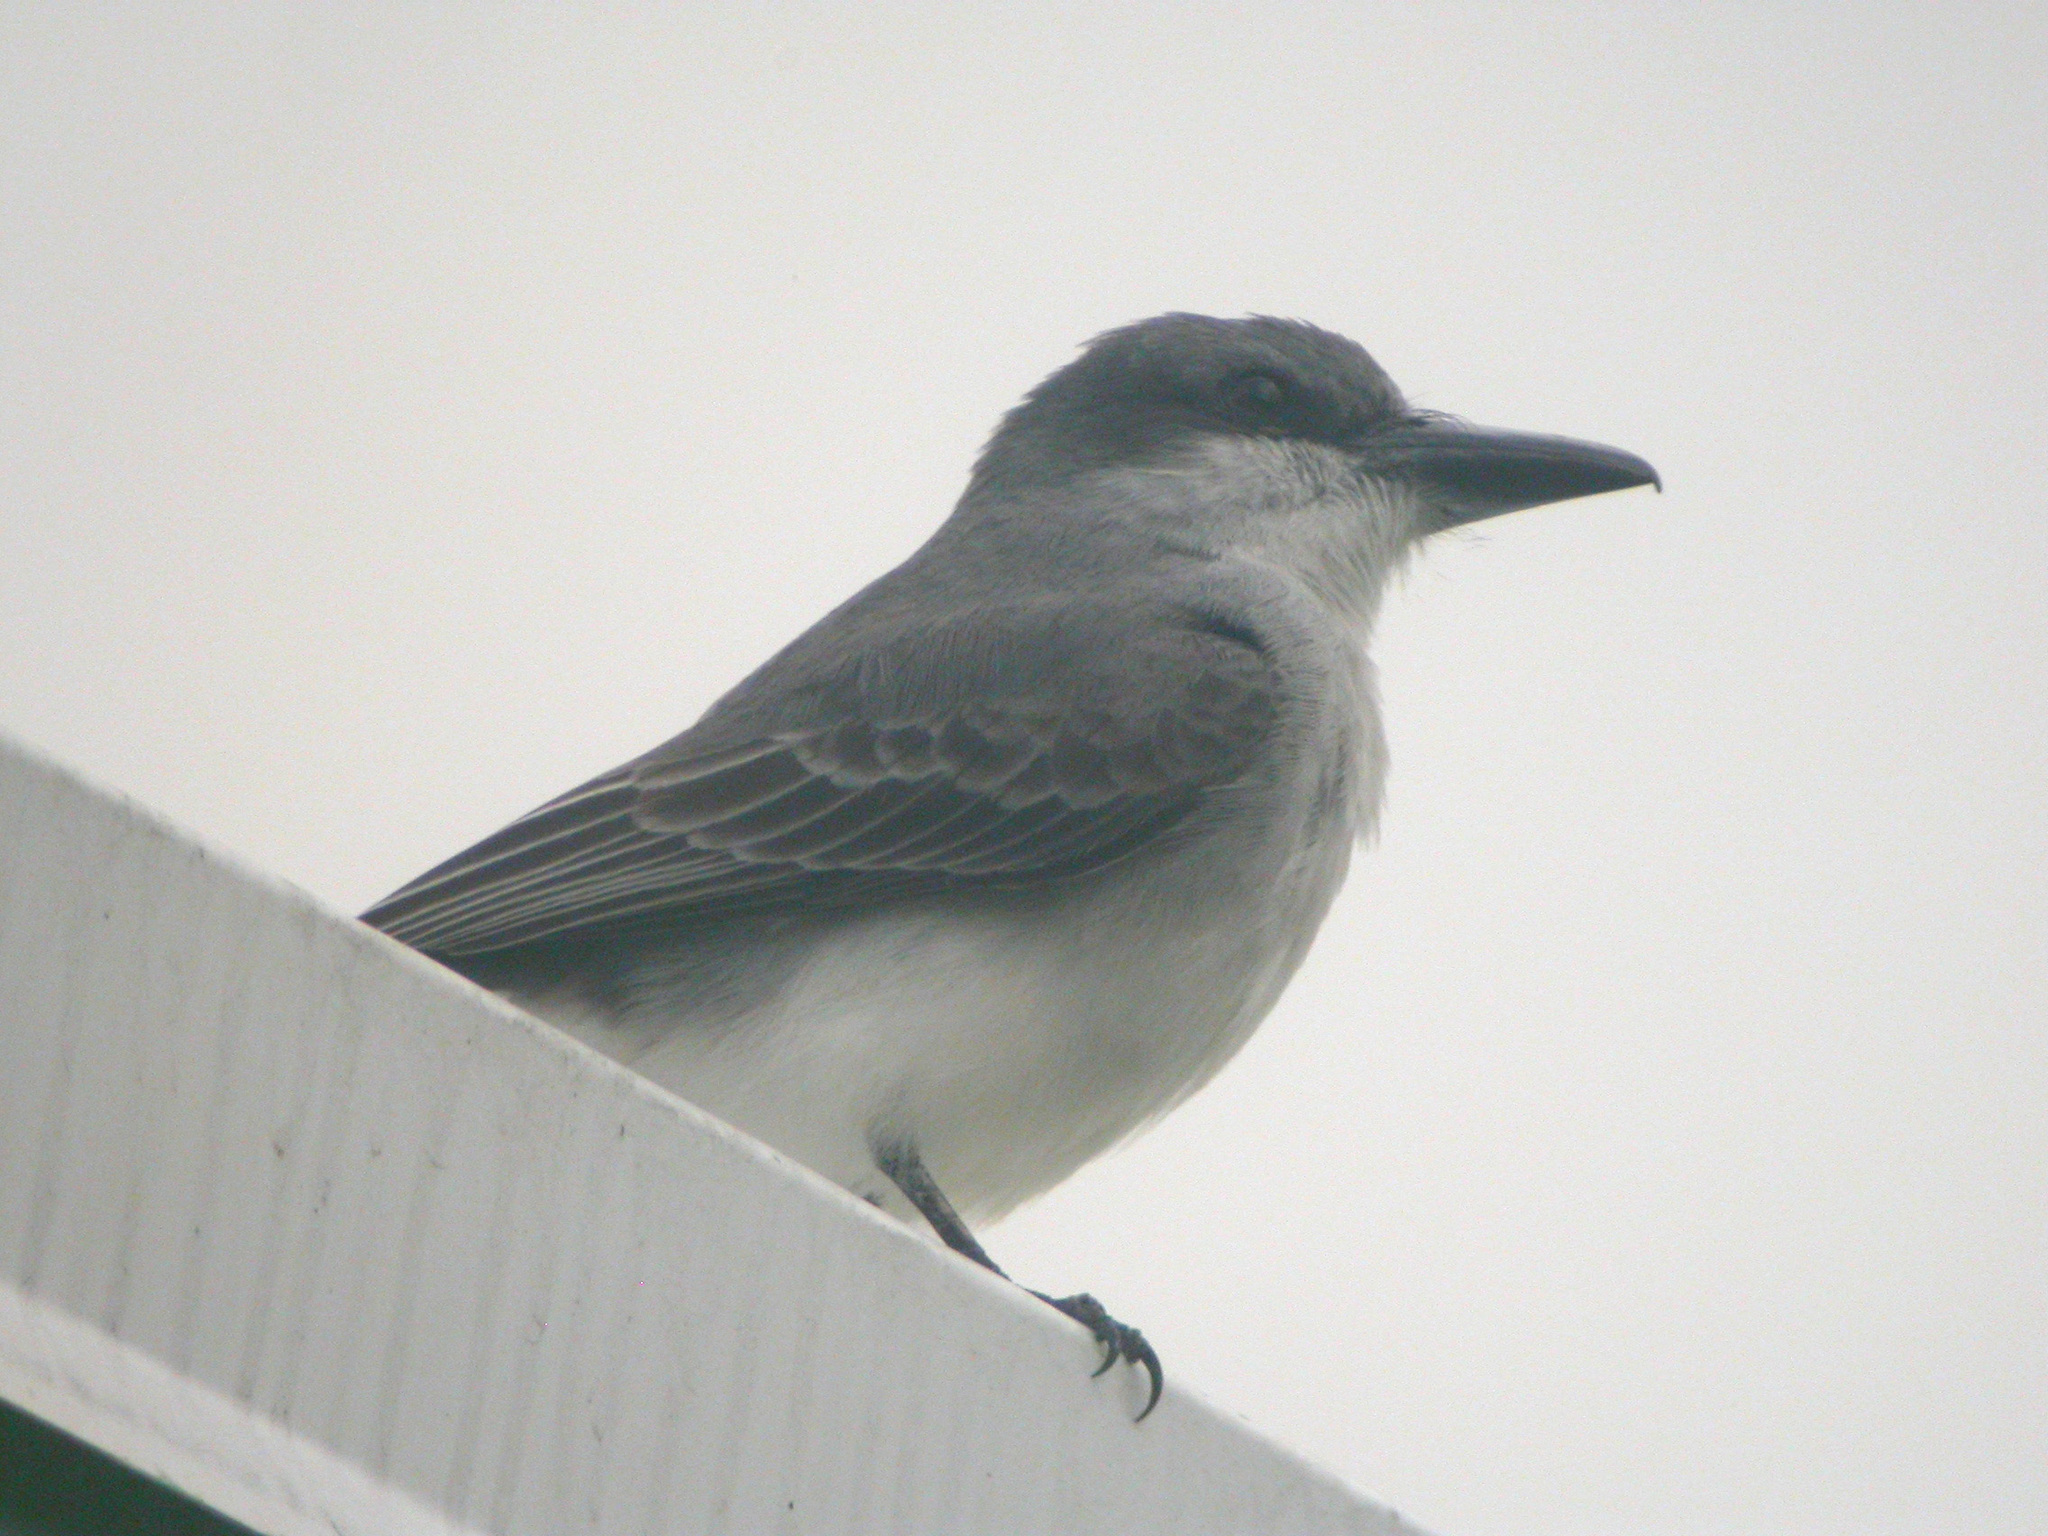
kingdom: Animalia
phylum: Chordata
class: Aves
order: Passeriformes
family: Tyrannidae
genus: Tyrannus
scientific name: Tyrannus dominicensis
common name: Gray kingbird
